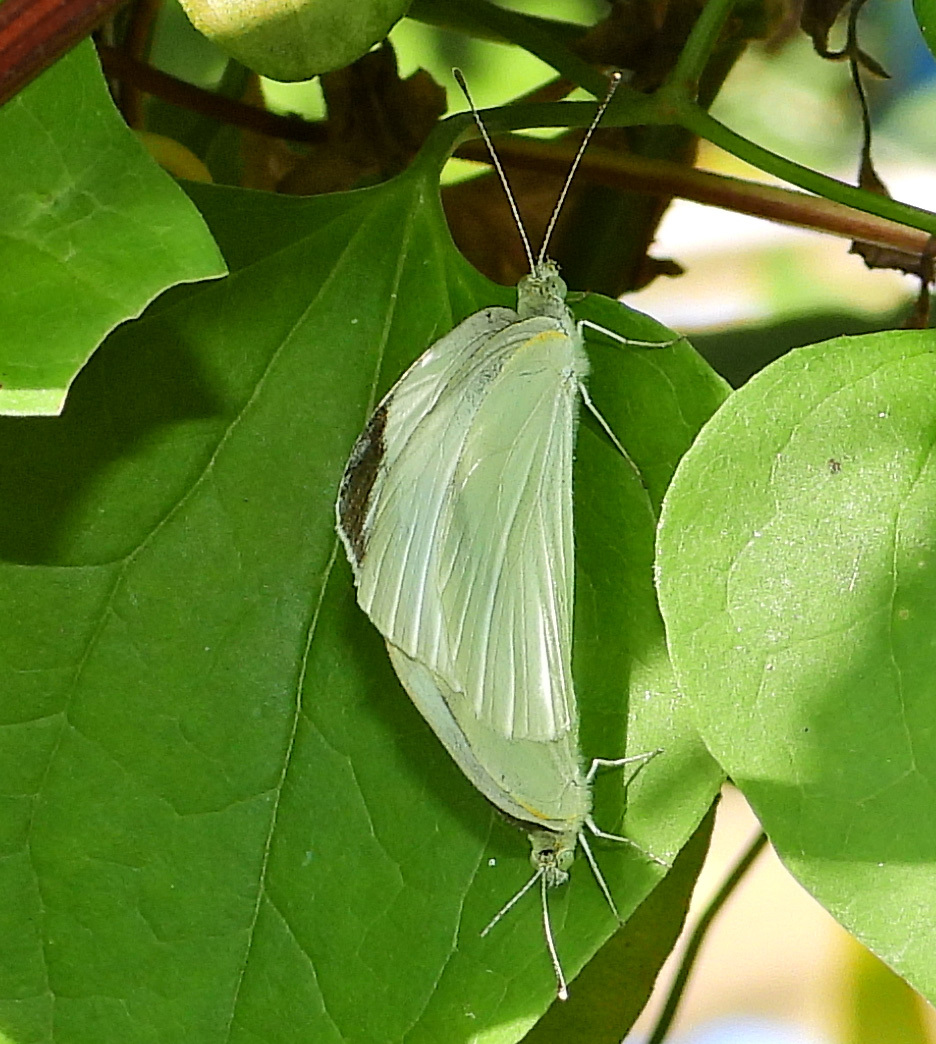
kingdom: Animalia
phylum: Arthropoda
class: Insecta
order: Lepidoptera
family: Pieridae
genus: Pieris
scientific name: Pieris rapae
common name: Small white
